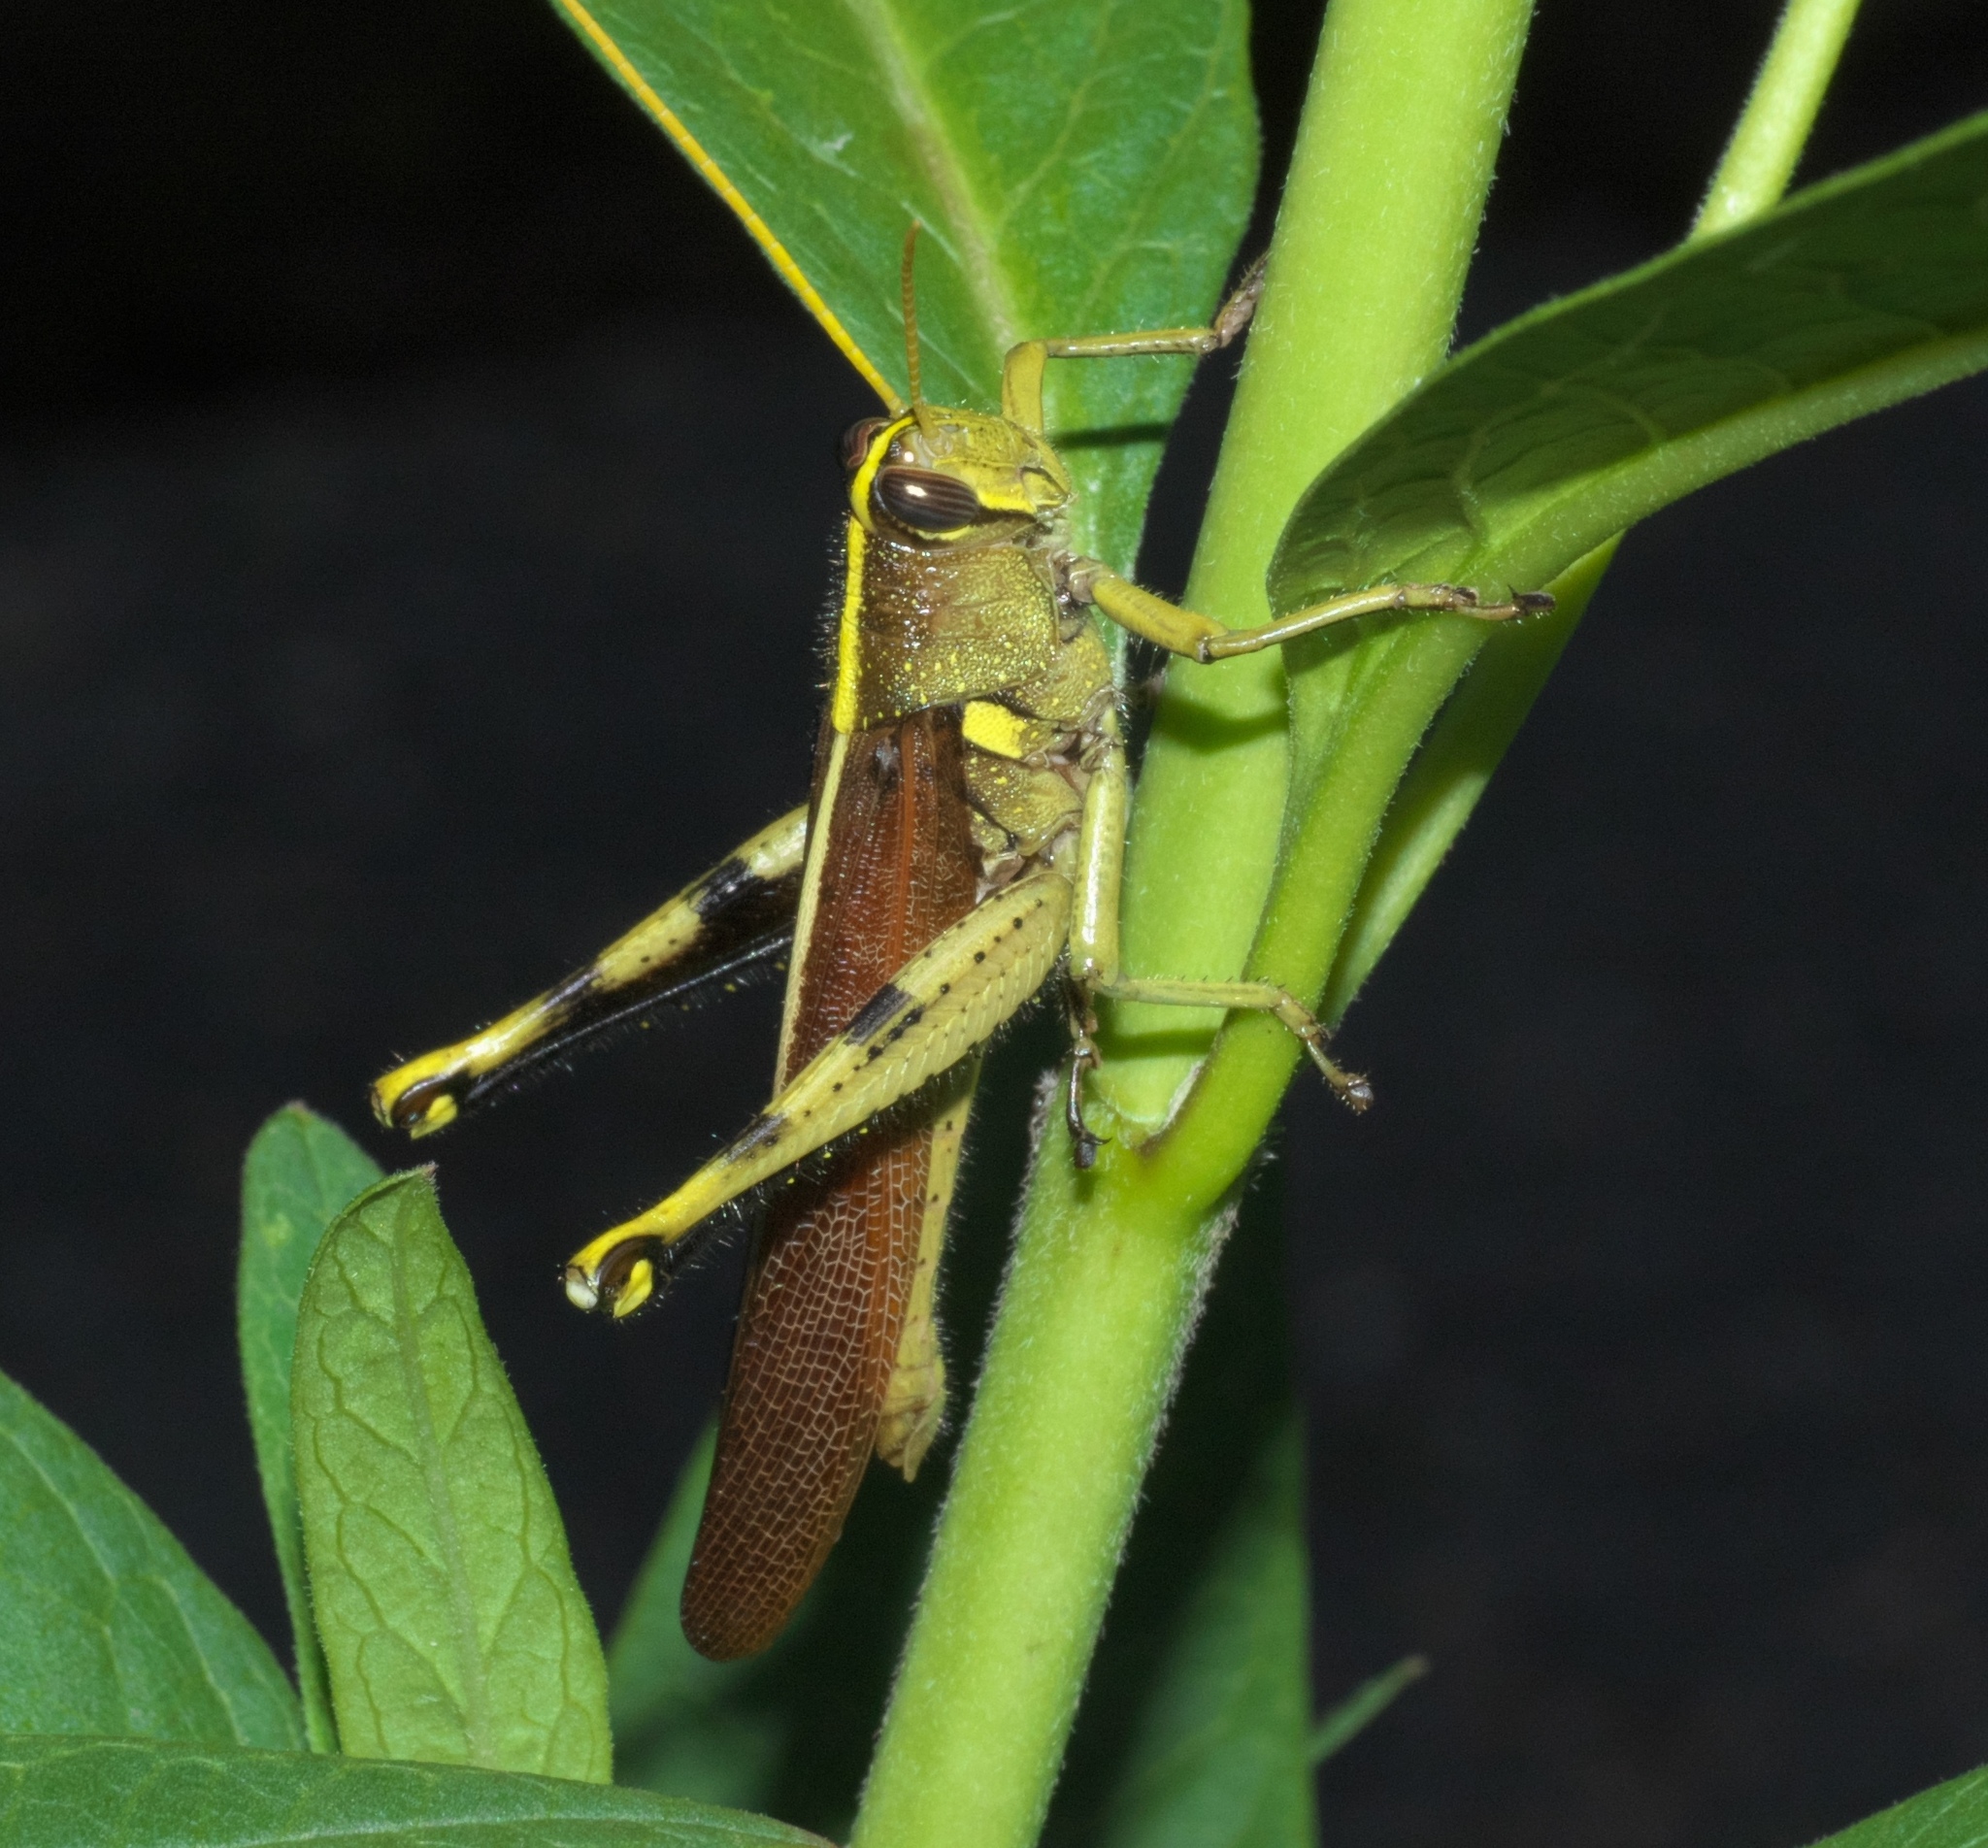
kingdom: Animalia
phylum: Arthropoda
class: Insecta
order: Orthoptera
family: Acrididae
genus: Schistocerca
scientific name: Schistocerca obscura
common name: Obscure bird grasshopper
